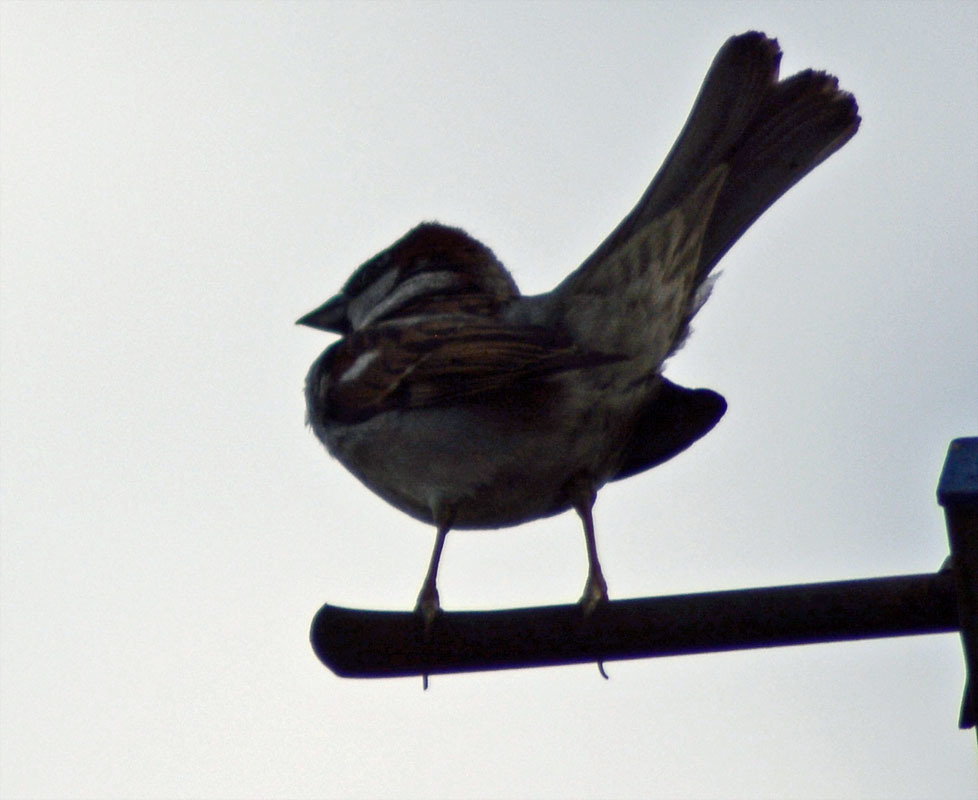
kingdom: Animalia
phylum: Chordata
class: Aves
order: Passeriformes
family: Passeridae
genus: Passer
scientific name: Passer domesticus
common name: House sparrow
